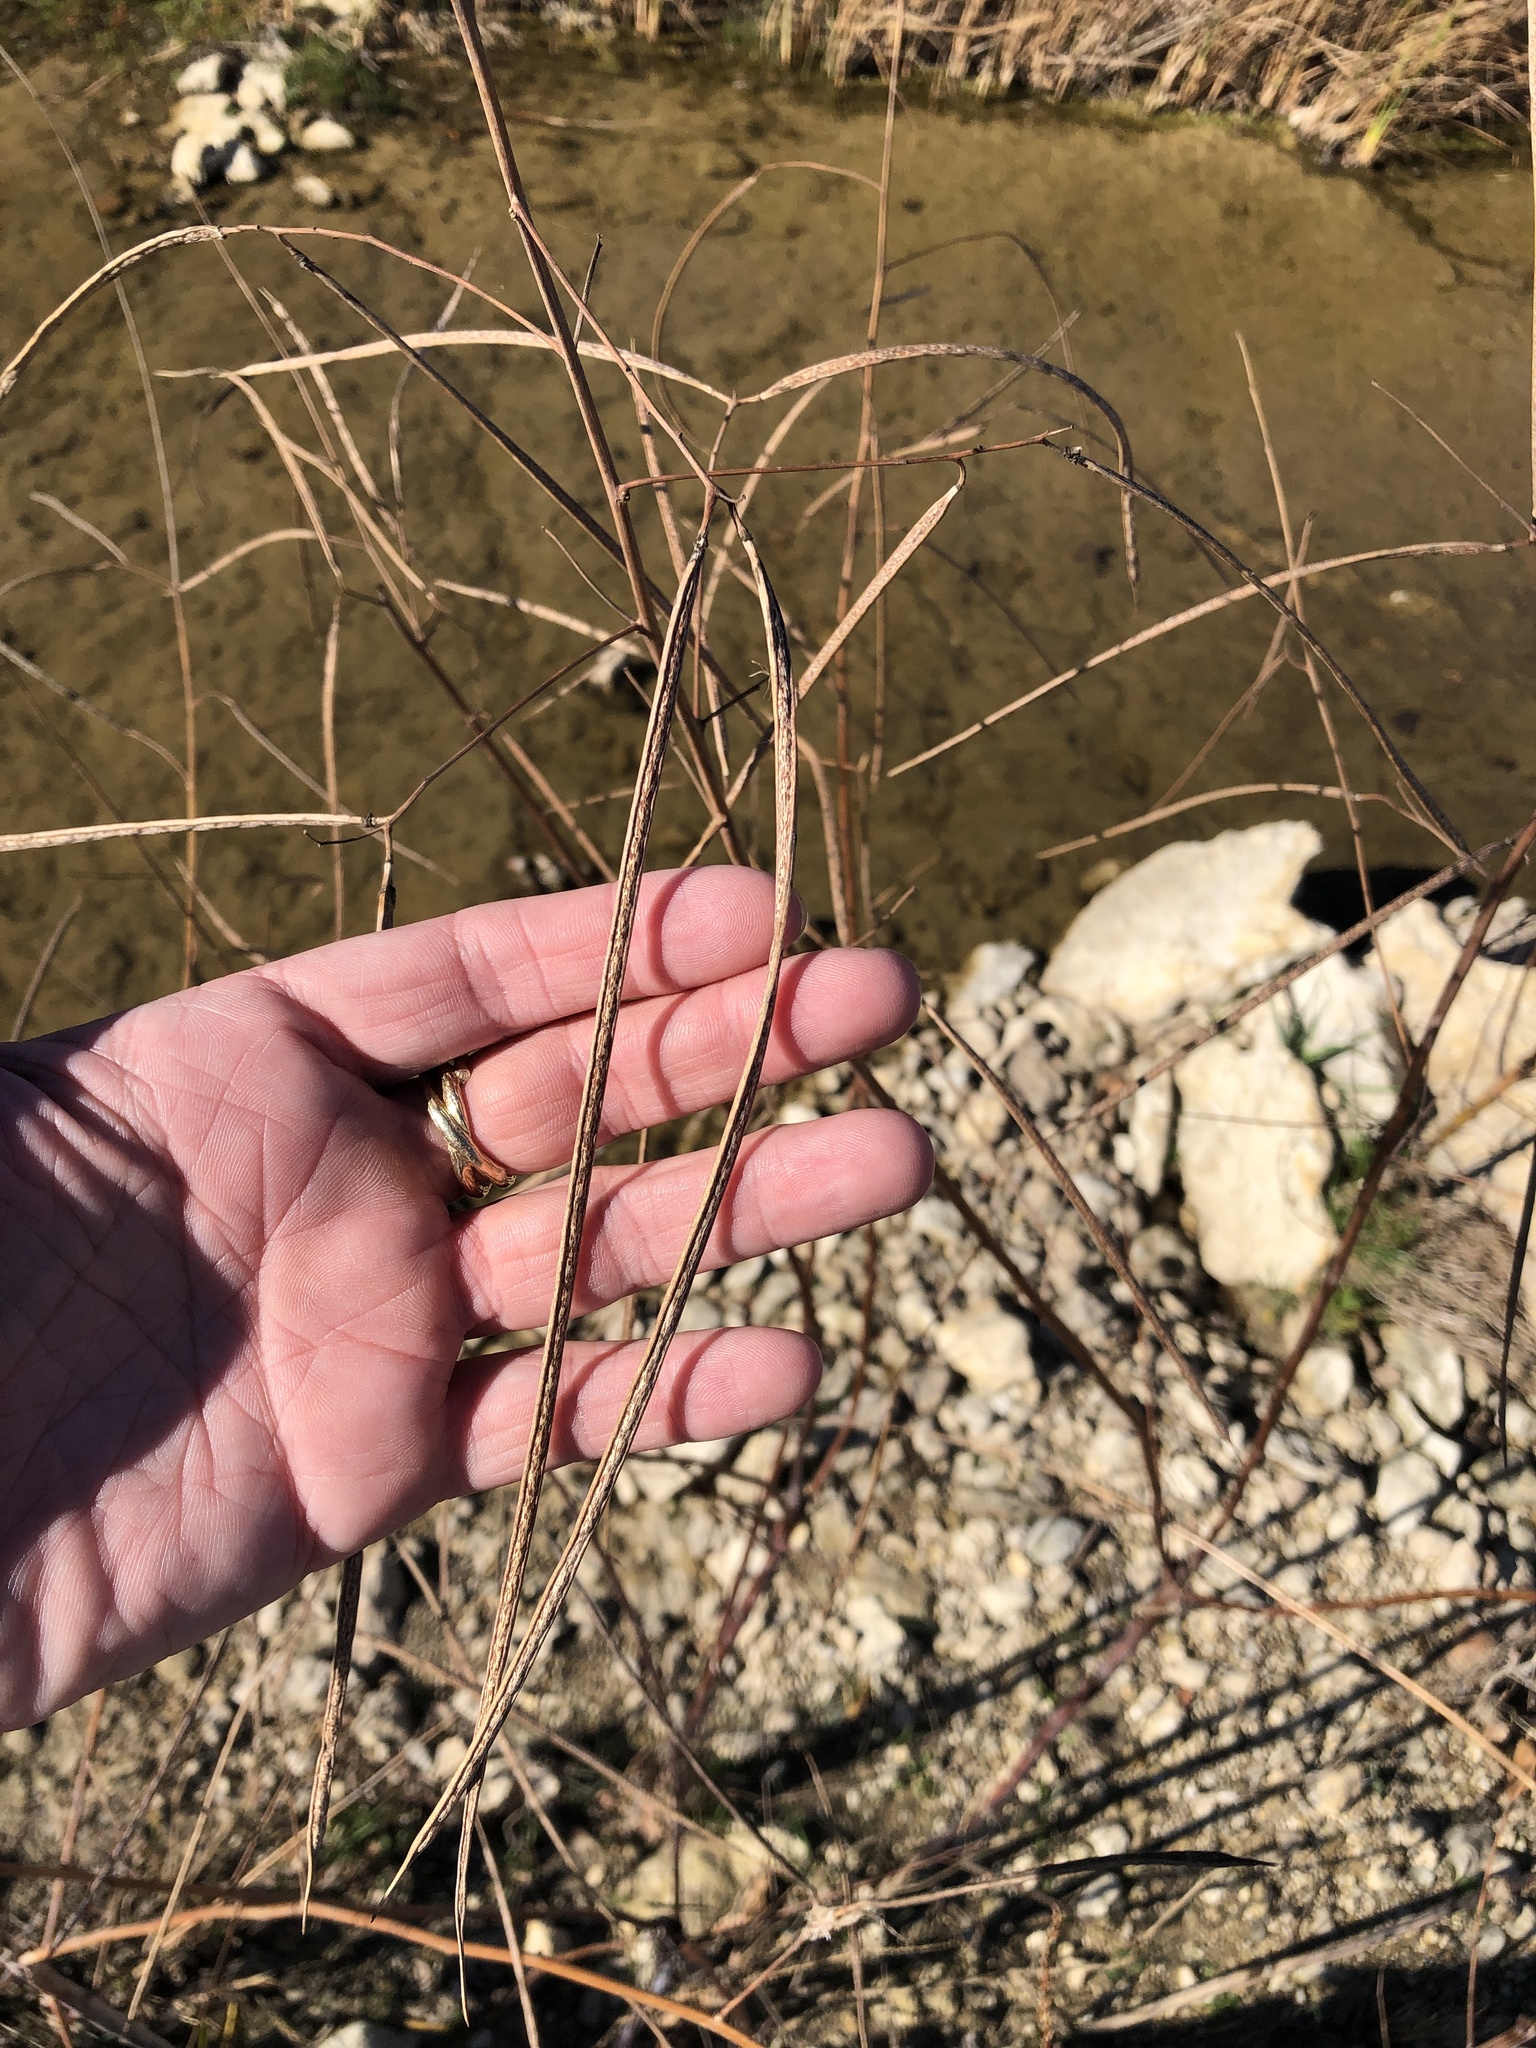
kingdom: Plantae
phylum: Tracheophyta
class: Magnoliopsida
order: Fabales
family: Fabaceae
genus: Sesbania
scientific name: Sesbania herbacea
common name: Bigpod sesbania
